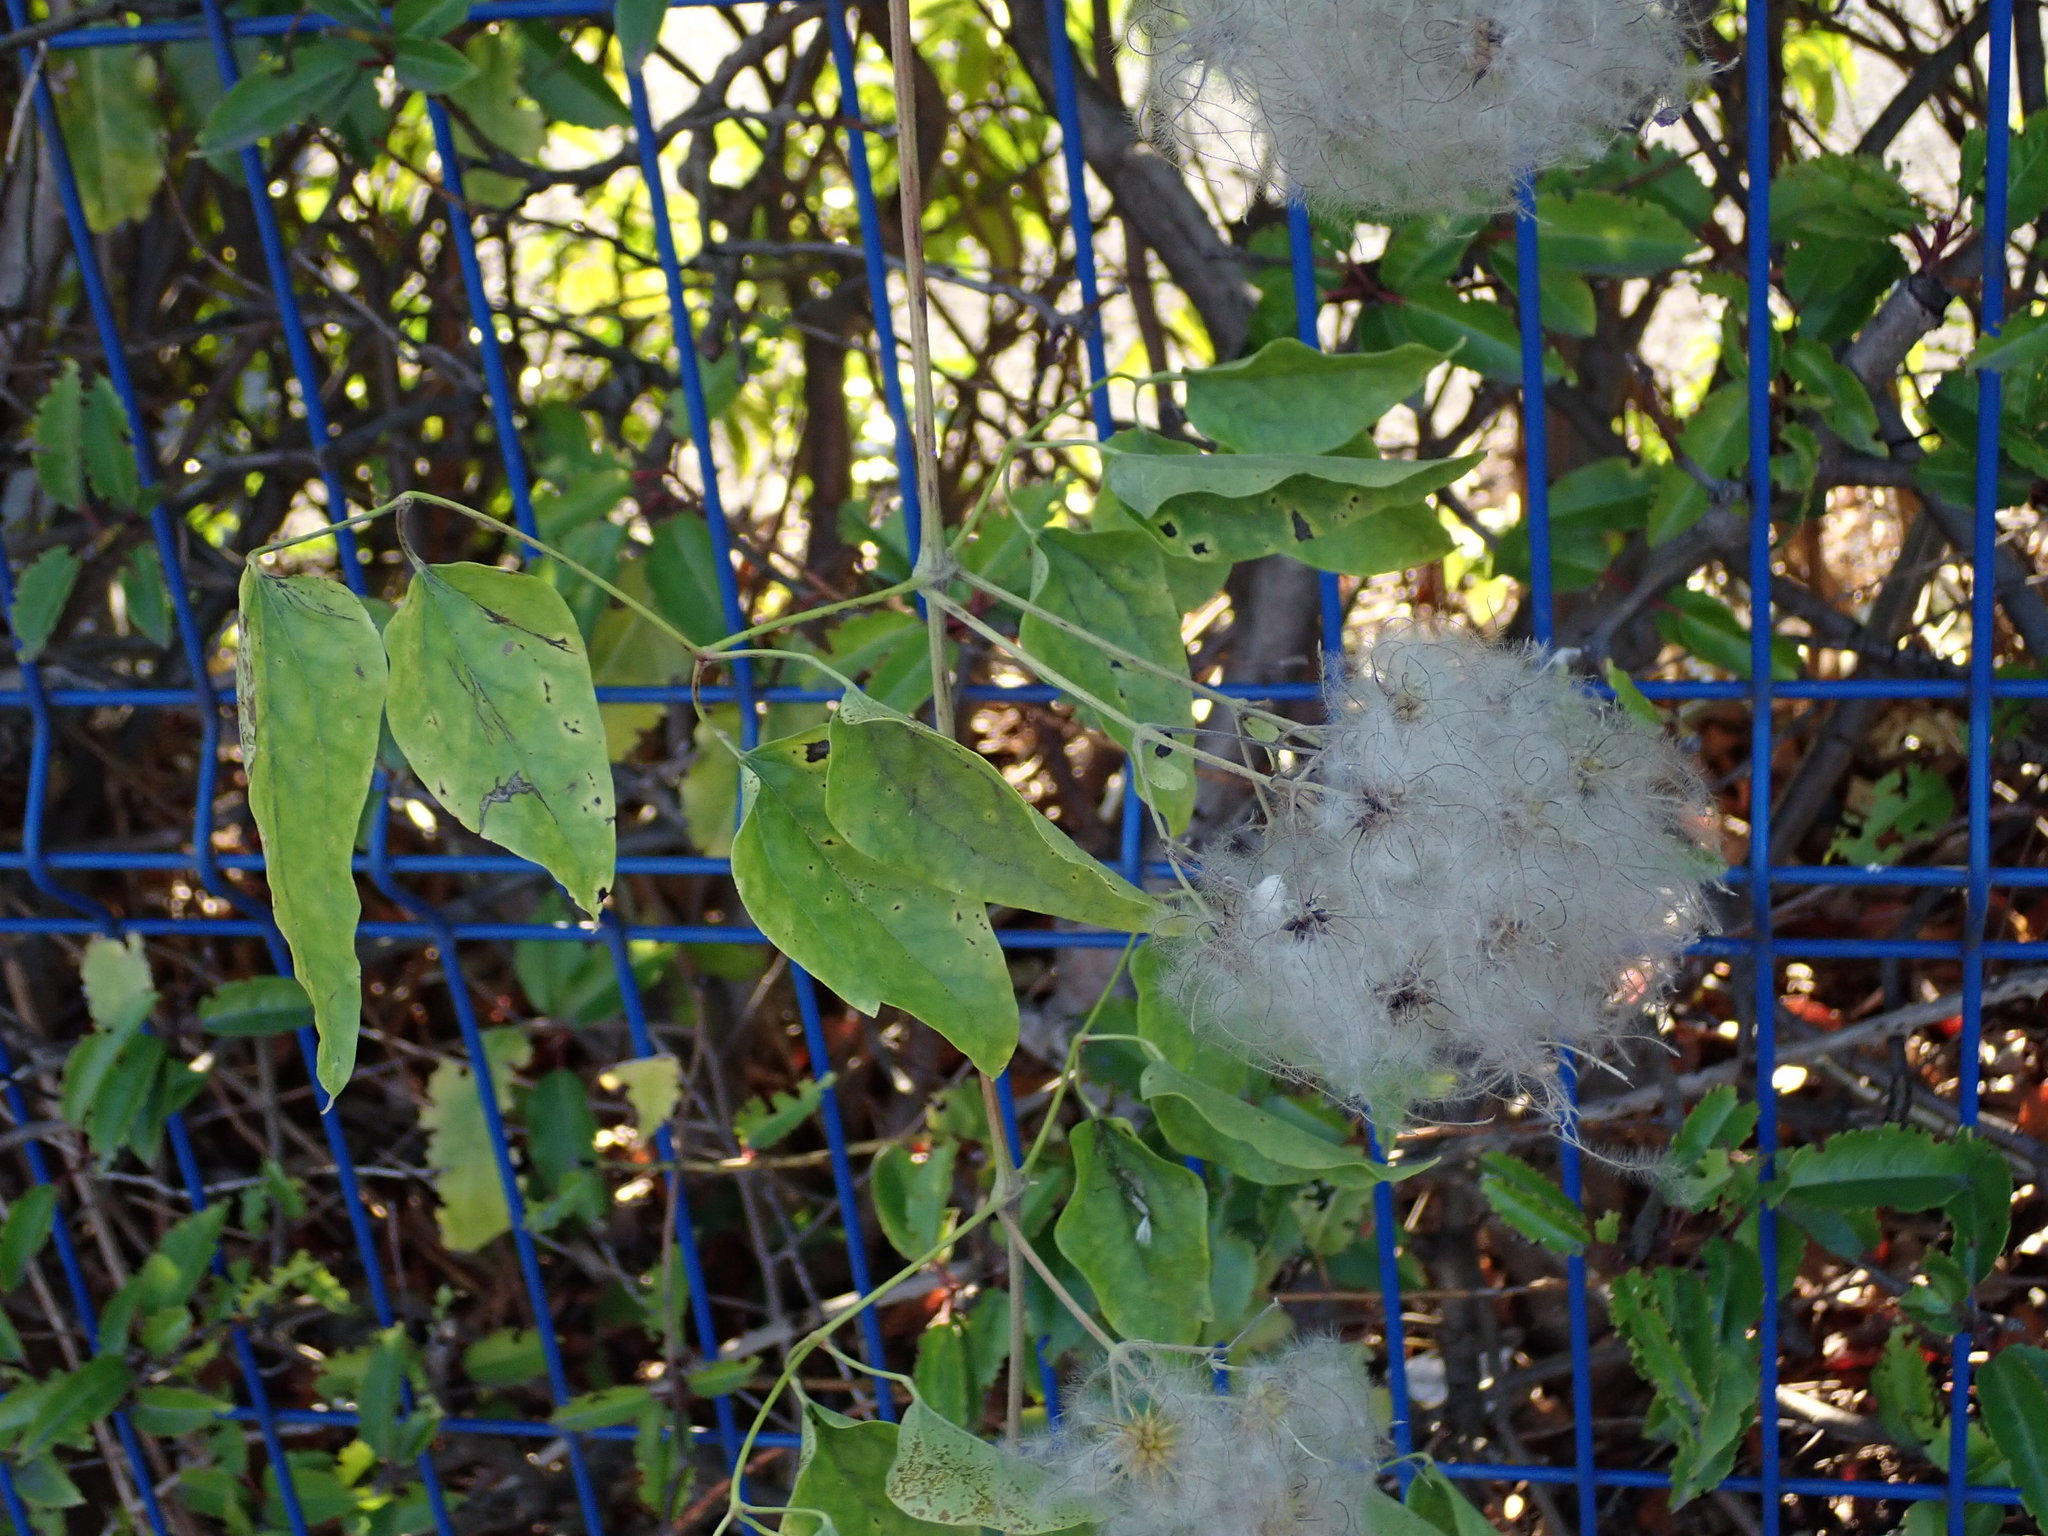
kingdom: Plantae
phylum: Tracheophyta
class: Magnoliopsida
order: Ranunculales
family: Ranunculaceae
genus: Clematis
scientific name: Clematis vitalba
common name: Evergreen clematis
